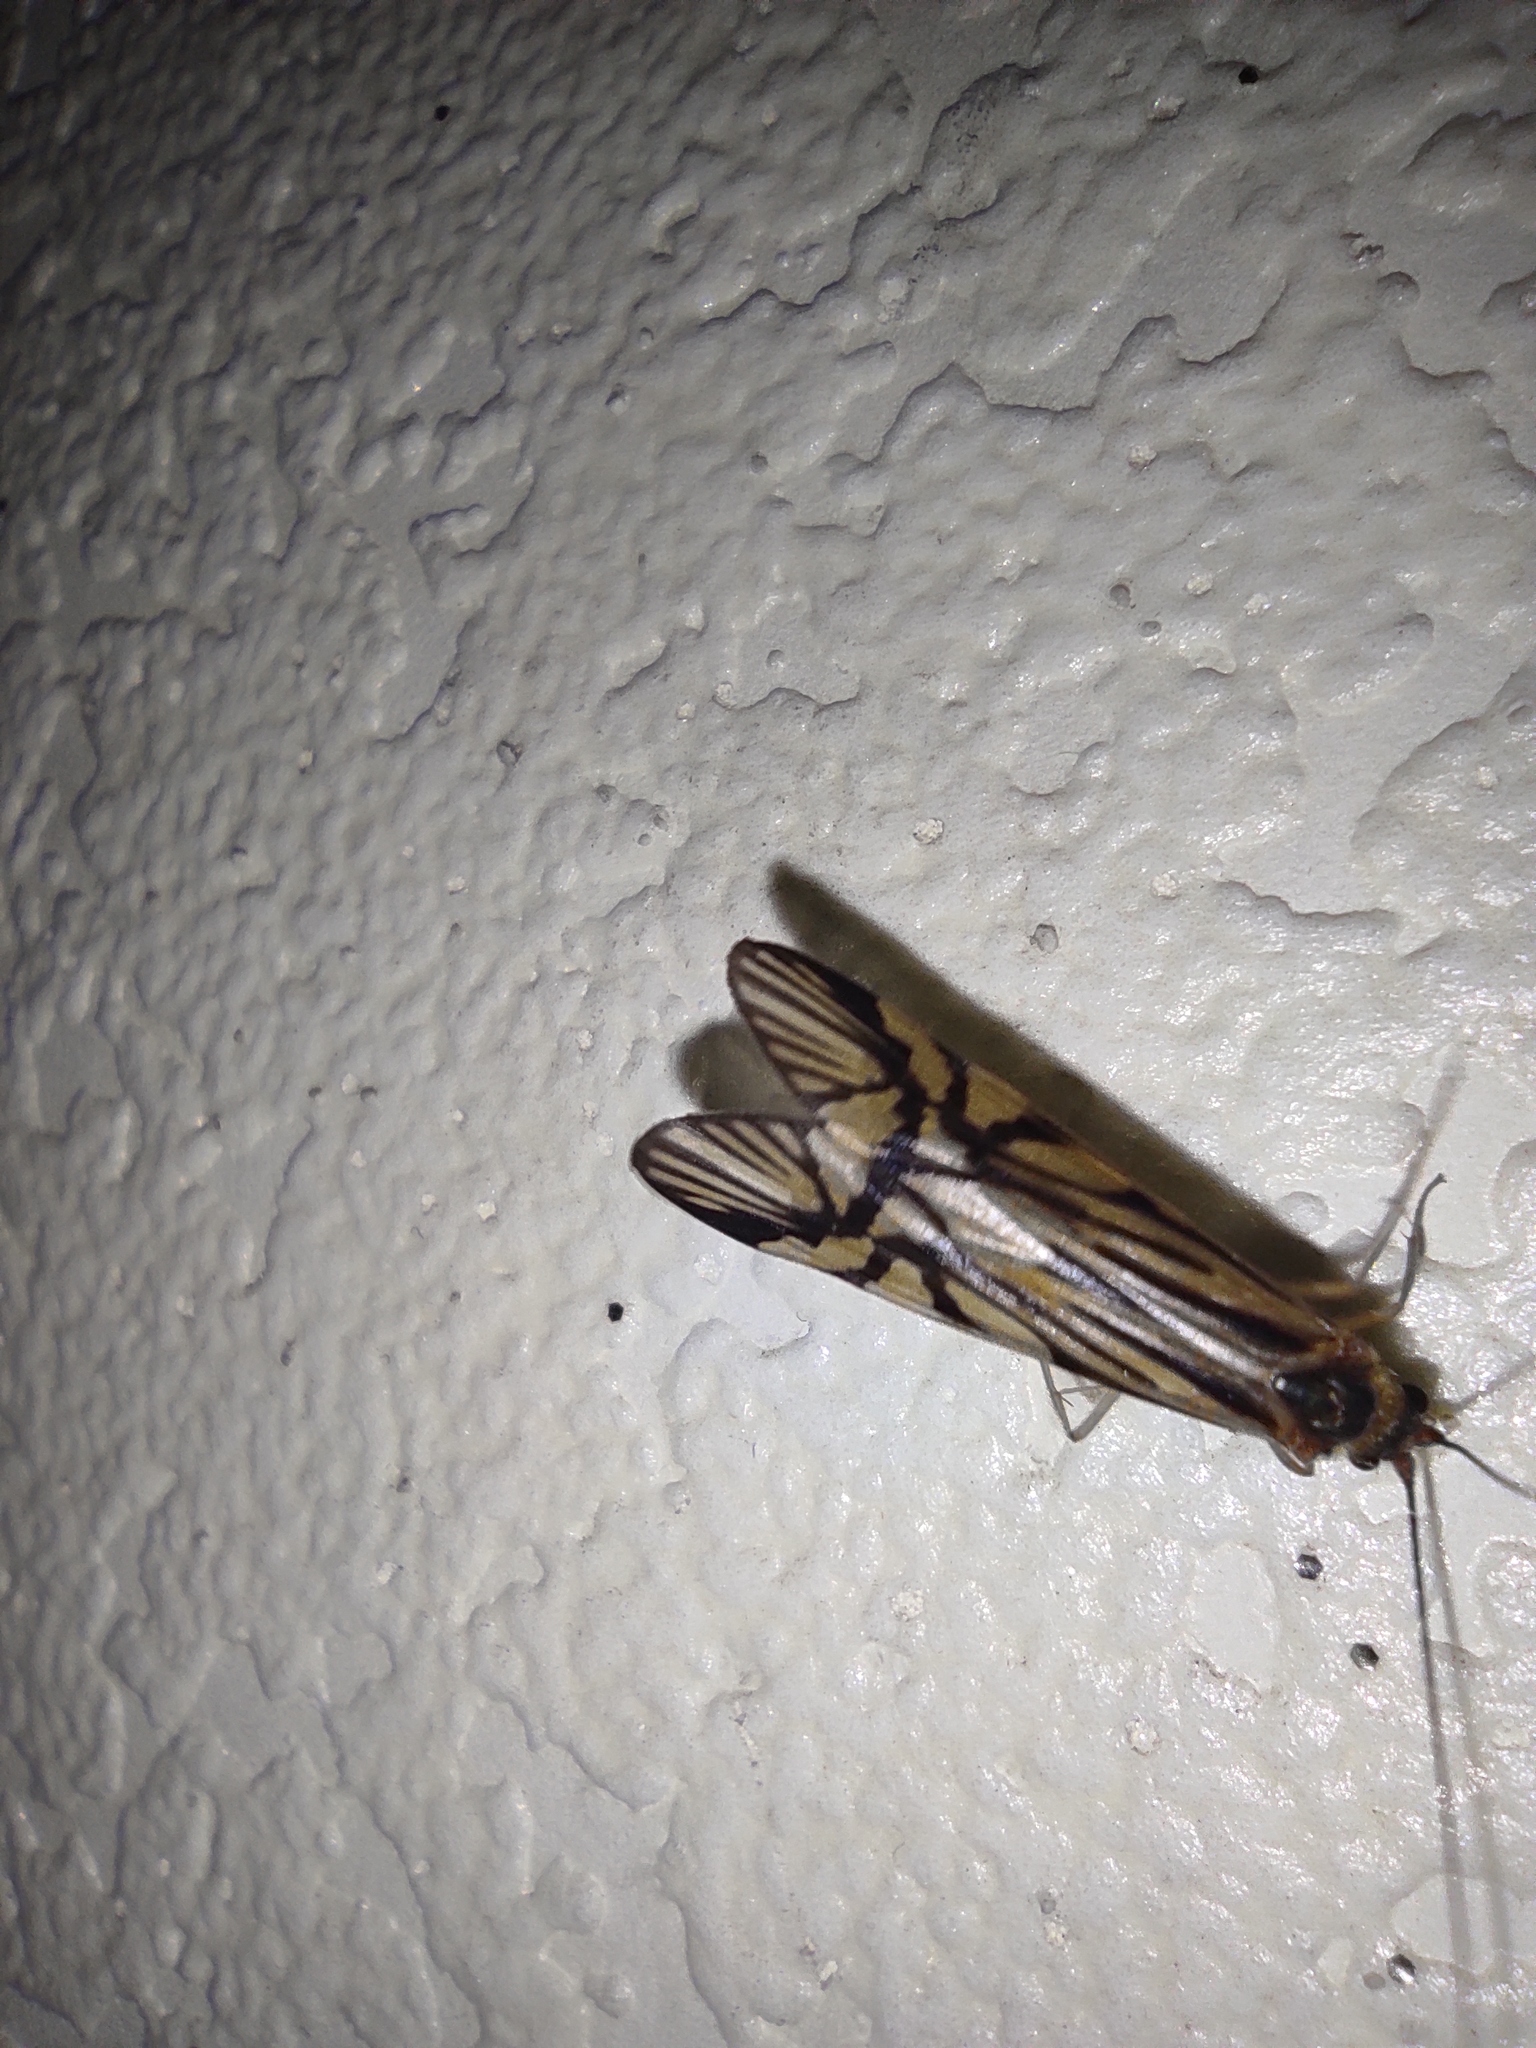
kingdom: Animalia
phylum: Arthropoda
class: Insecta
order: Trichoptera
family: Hydropsychidae
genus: Macrostemum
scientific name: Macrostemum radiatum
